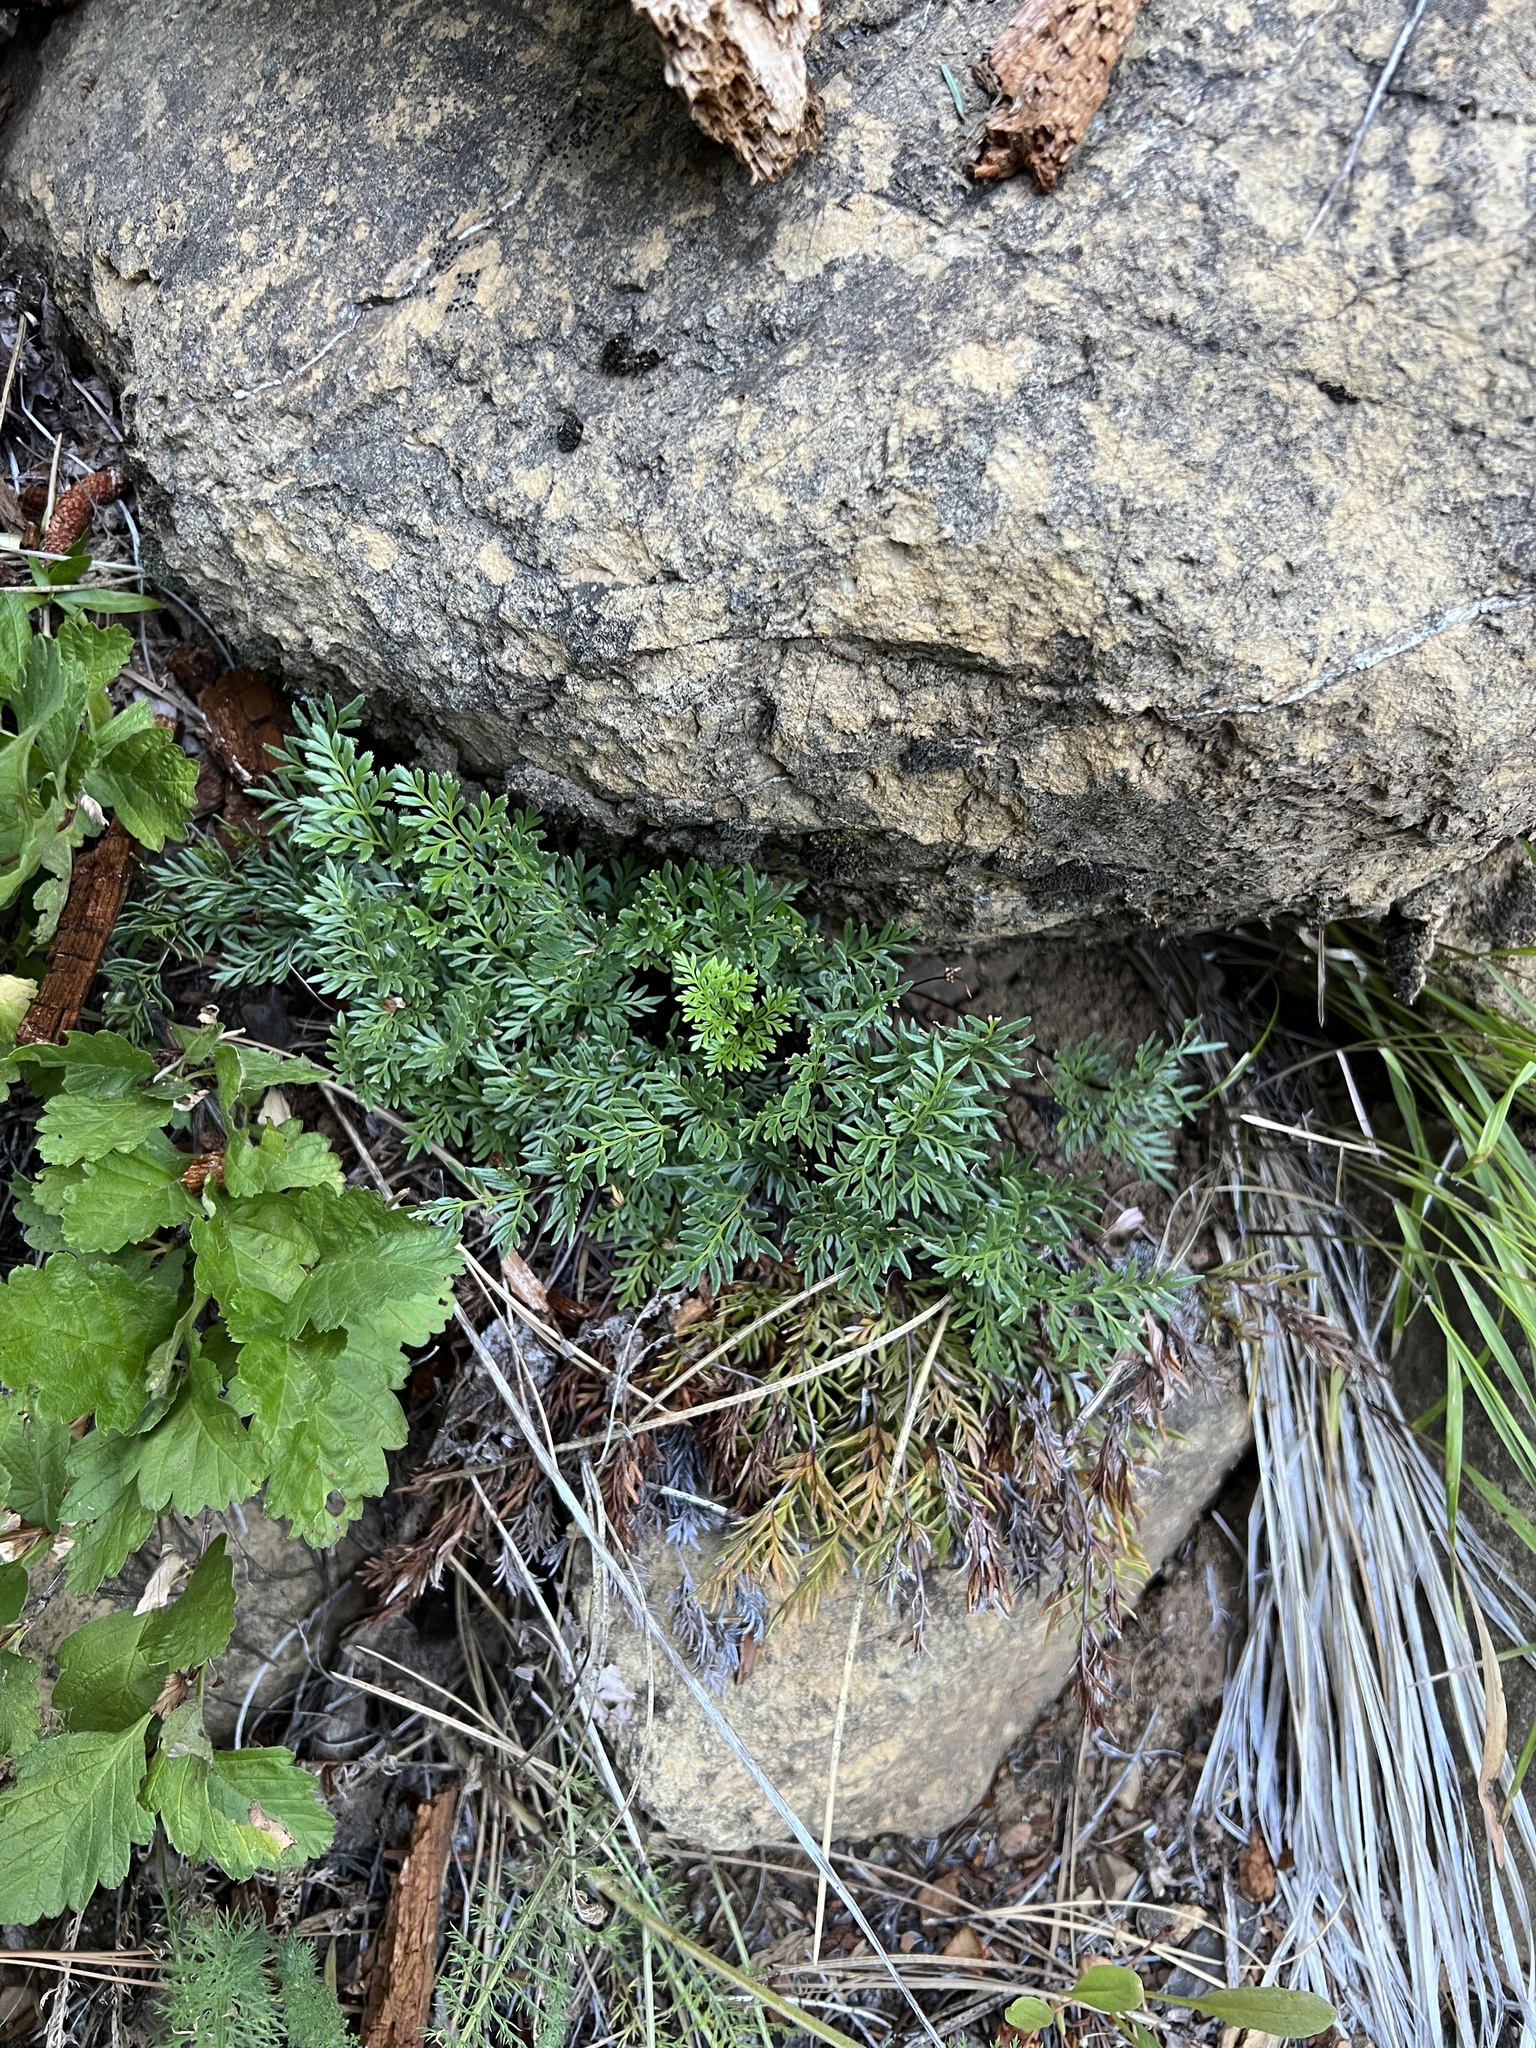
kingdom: Plantae
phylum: Tracheophyta
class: Polypodiopsida
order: Polypodiales
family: Pteridaceae
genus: Aspidotis
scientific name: Aspidotis densa
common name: Indian's dream
